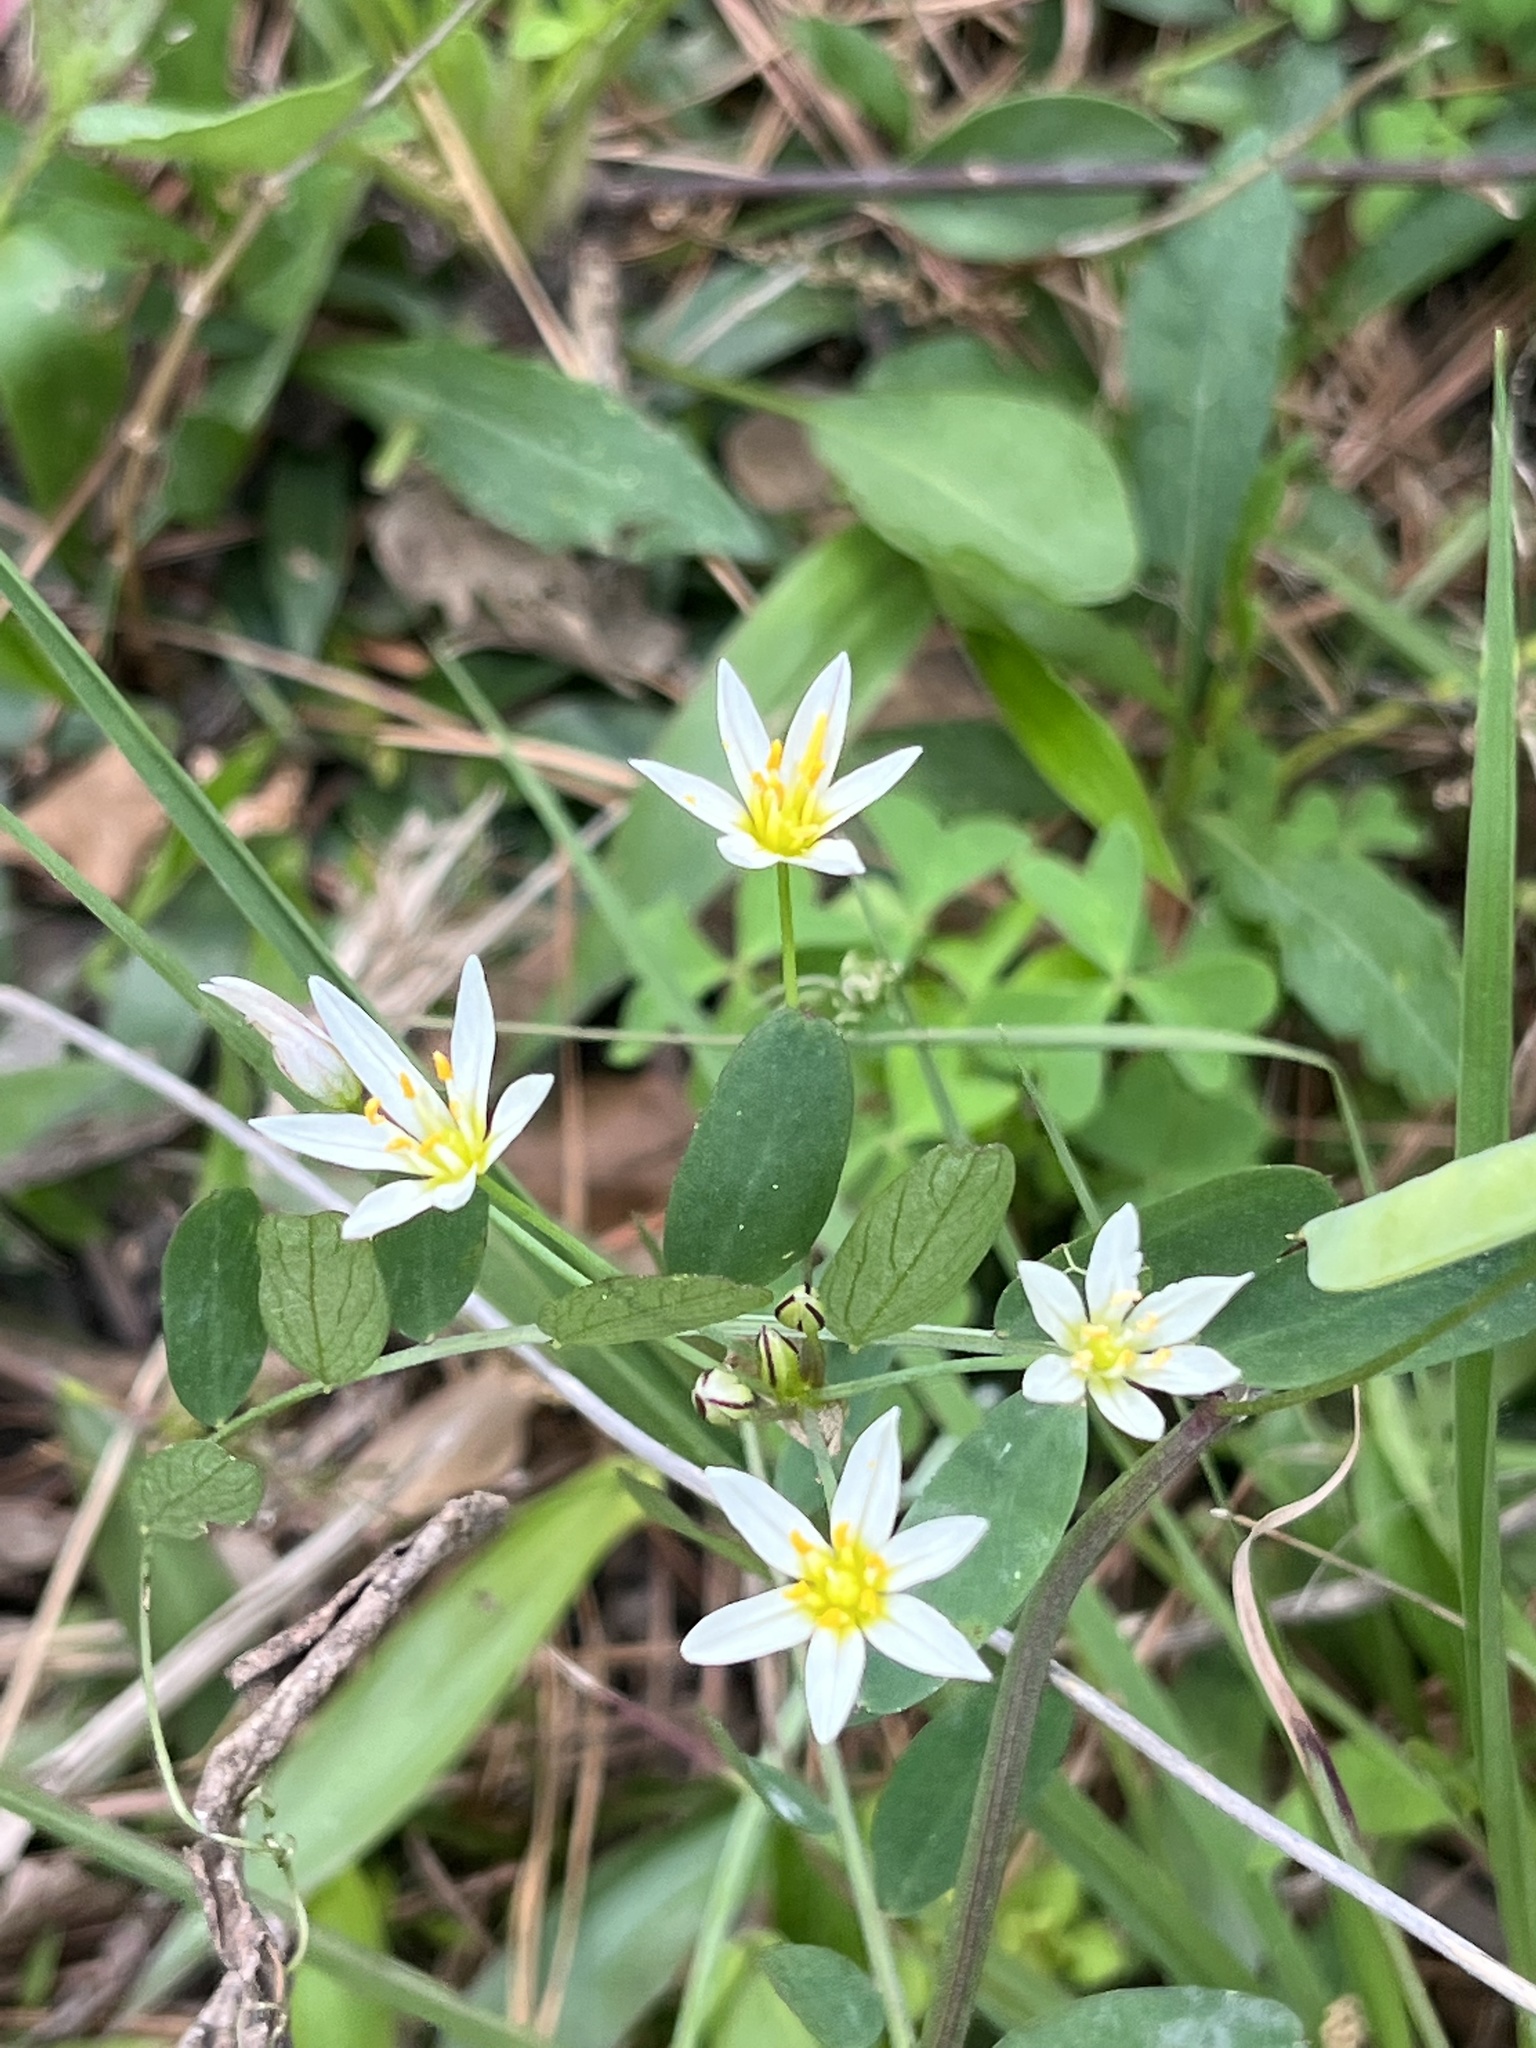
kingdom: Plantae
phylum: Tracheophyta
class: Liliopsida
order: Asparagales
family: Amaryllidaceae
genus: Nothoscordum
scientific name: Nothoscordum bivalve
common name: Crow-poison
